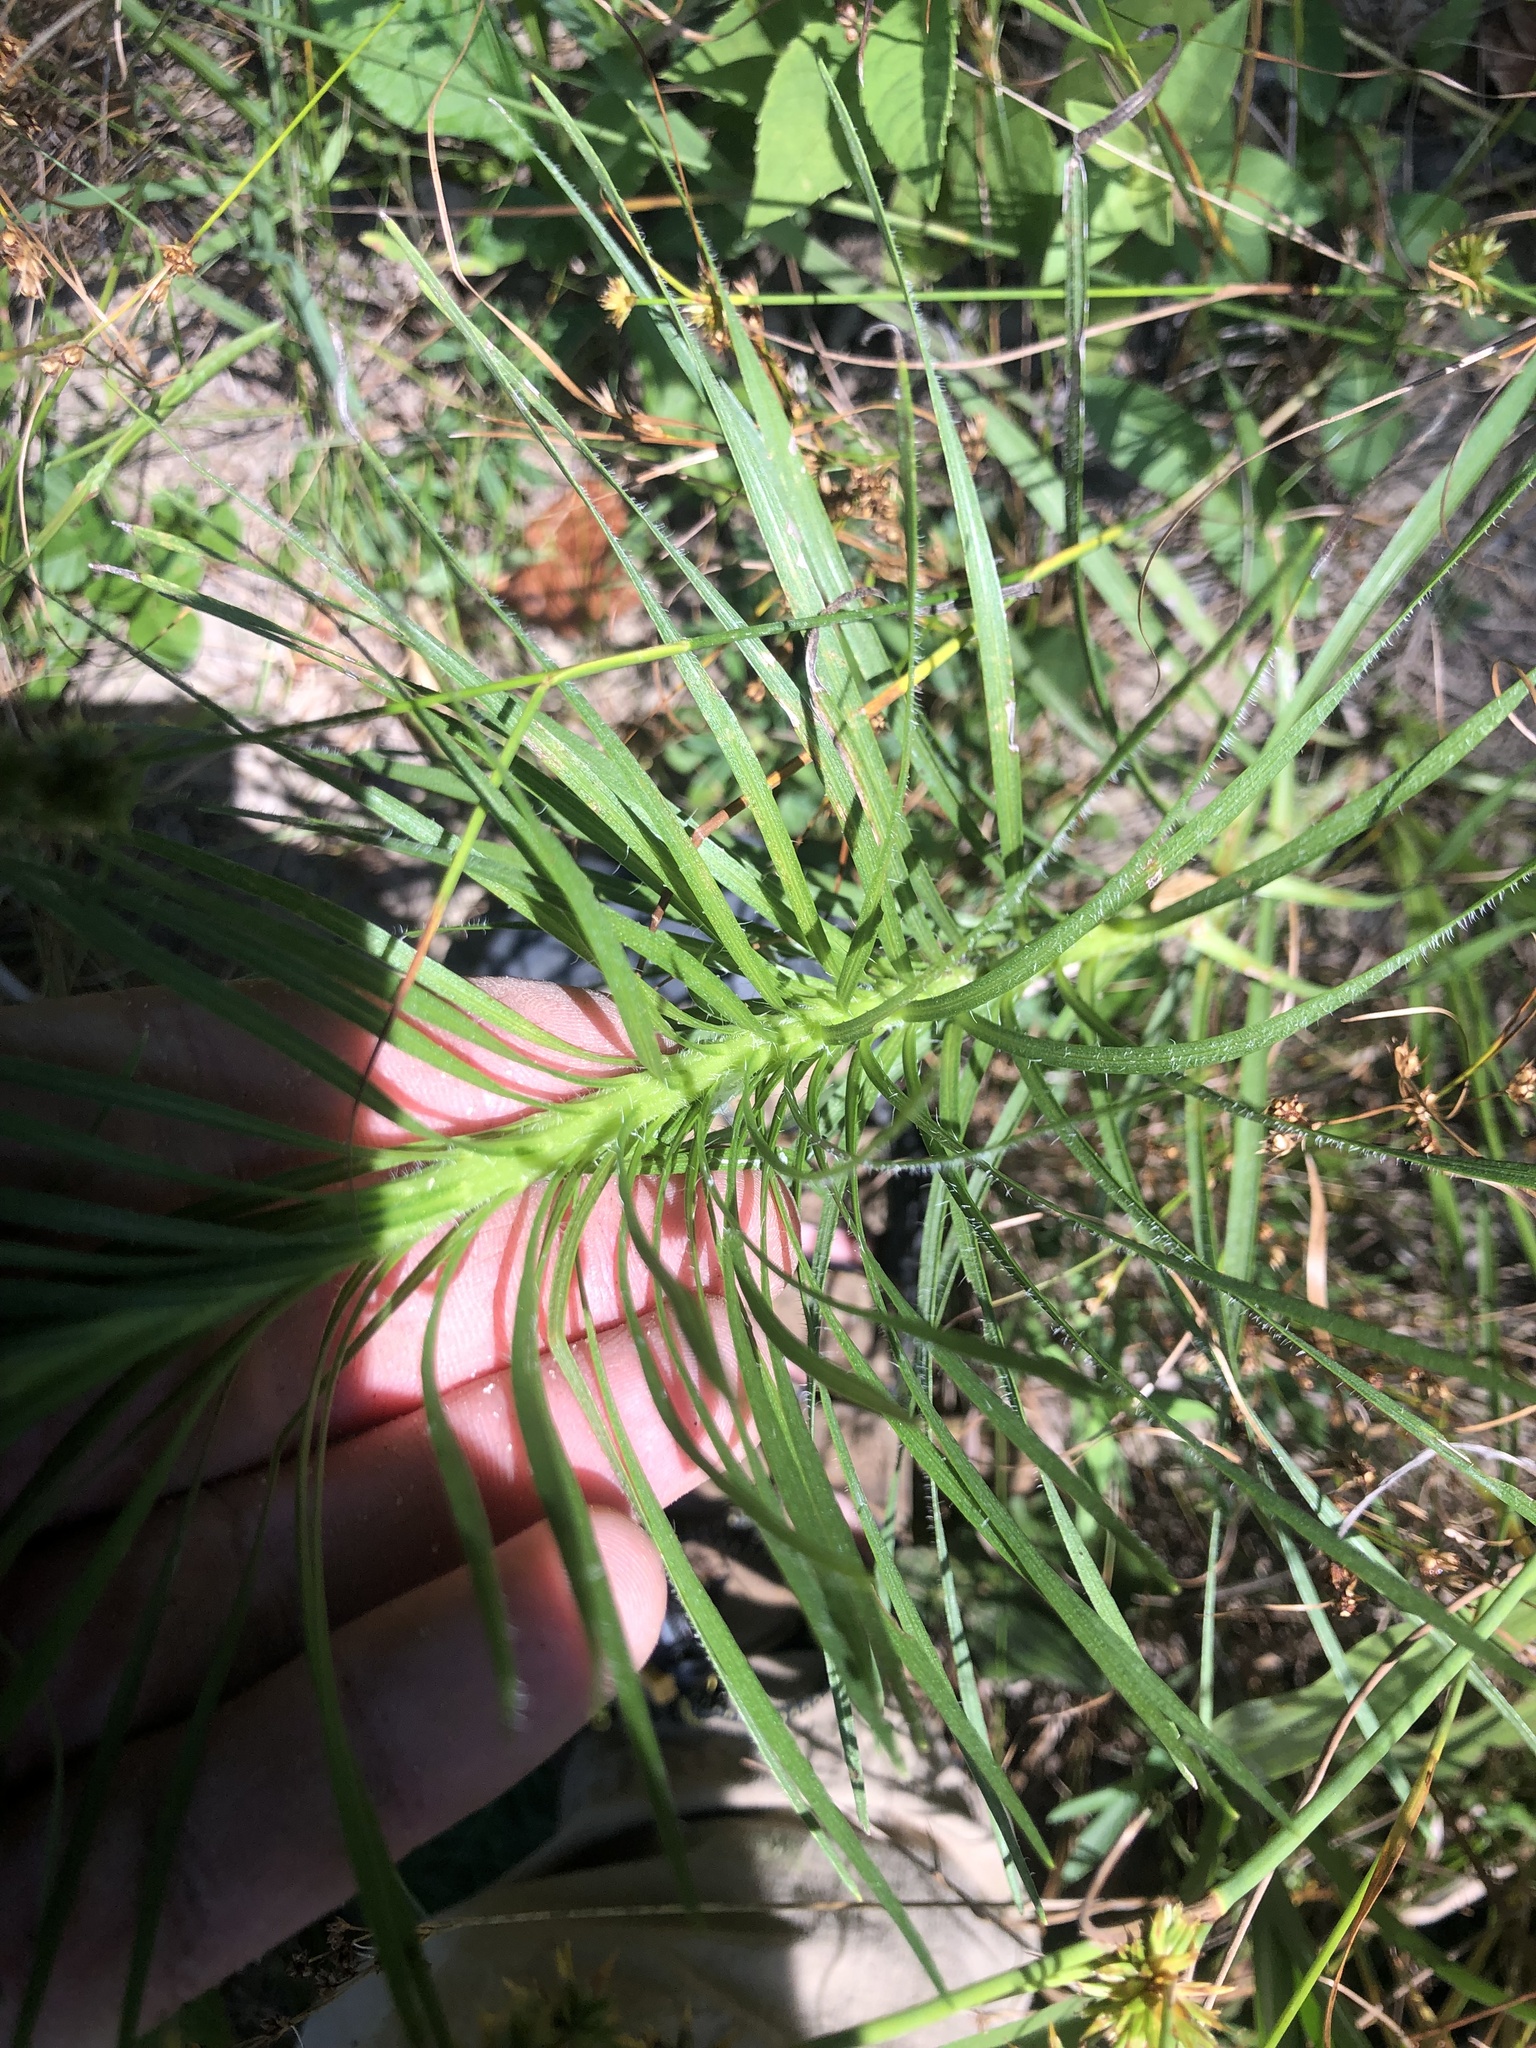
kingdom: Plantae
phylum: Tracheophyta
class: Magnoliopsida
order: Asterales
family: Asteraceae
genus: Liatris
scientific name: Liatris pycnostachya
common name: Cattail gayfeather
